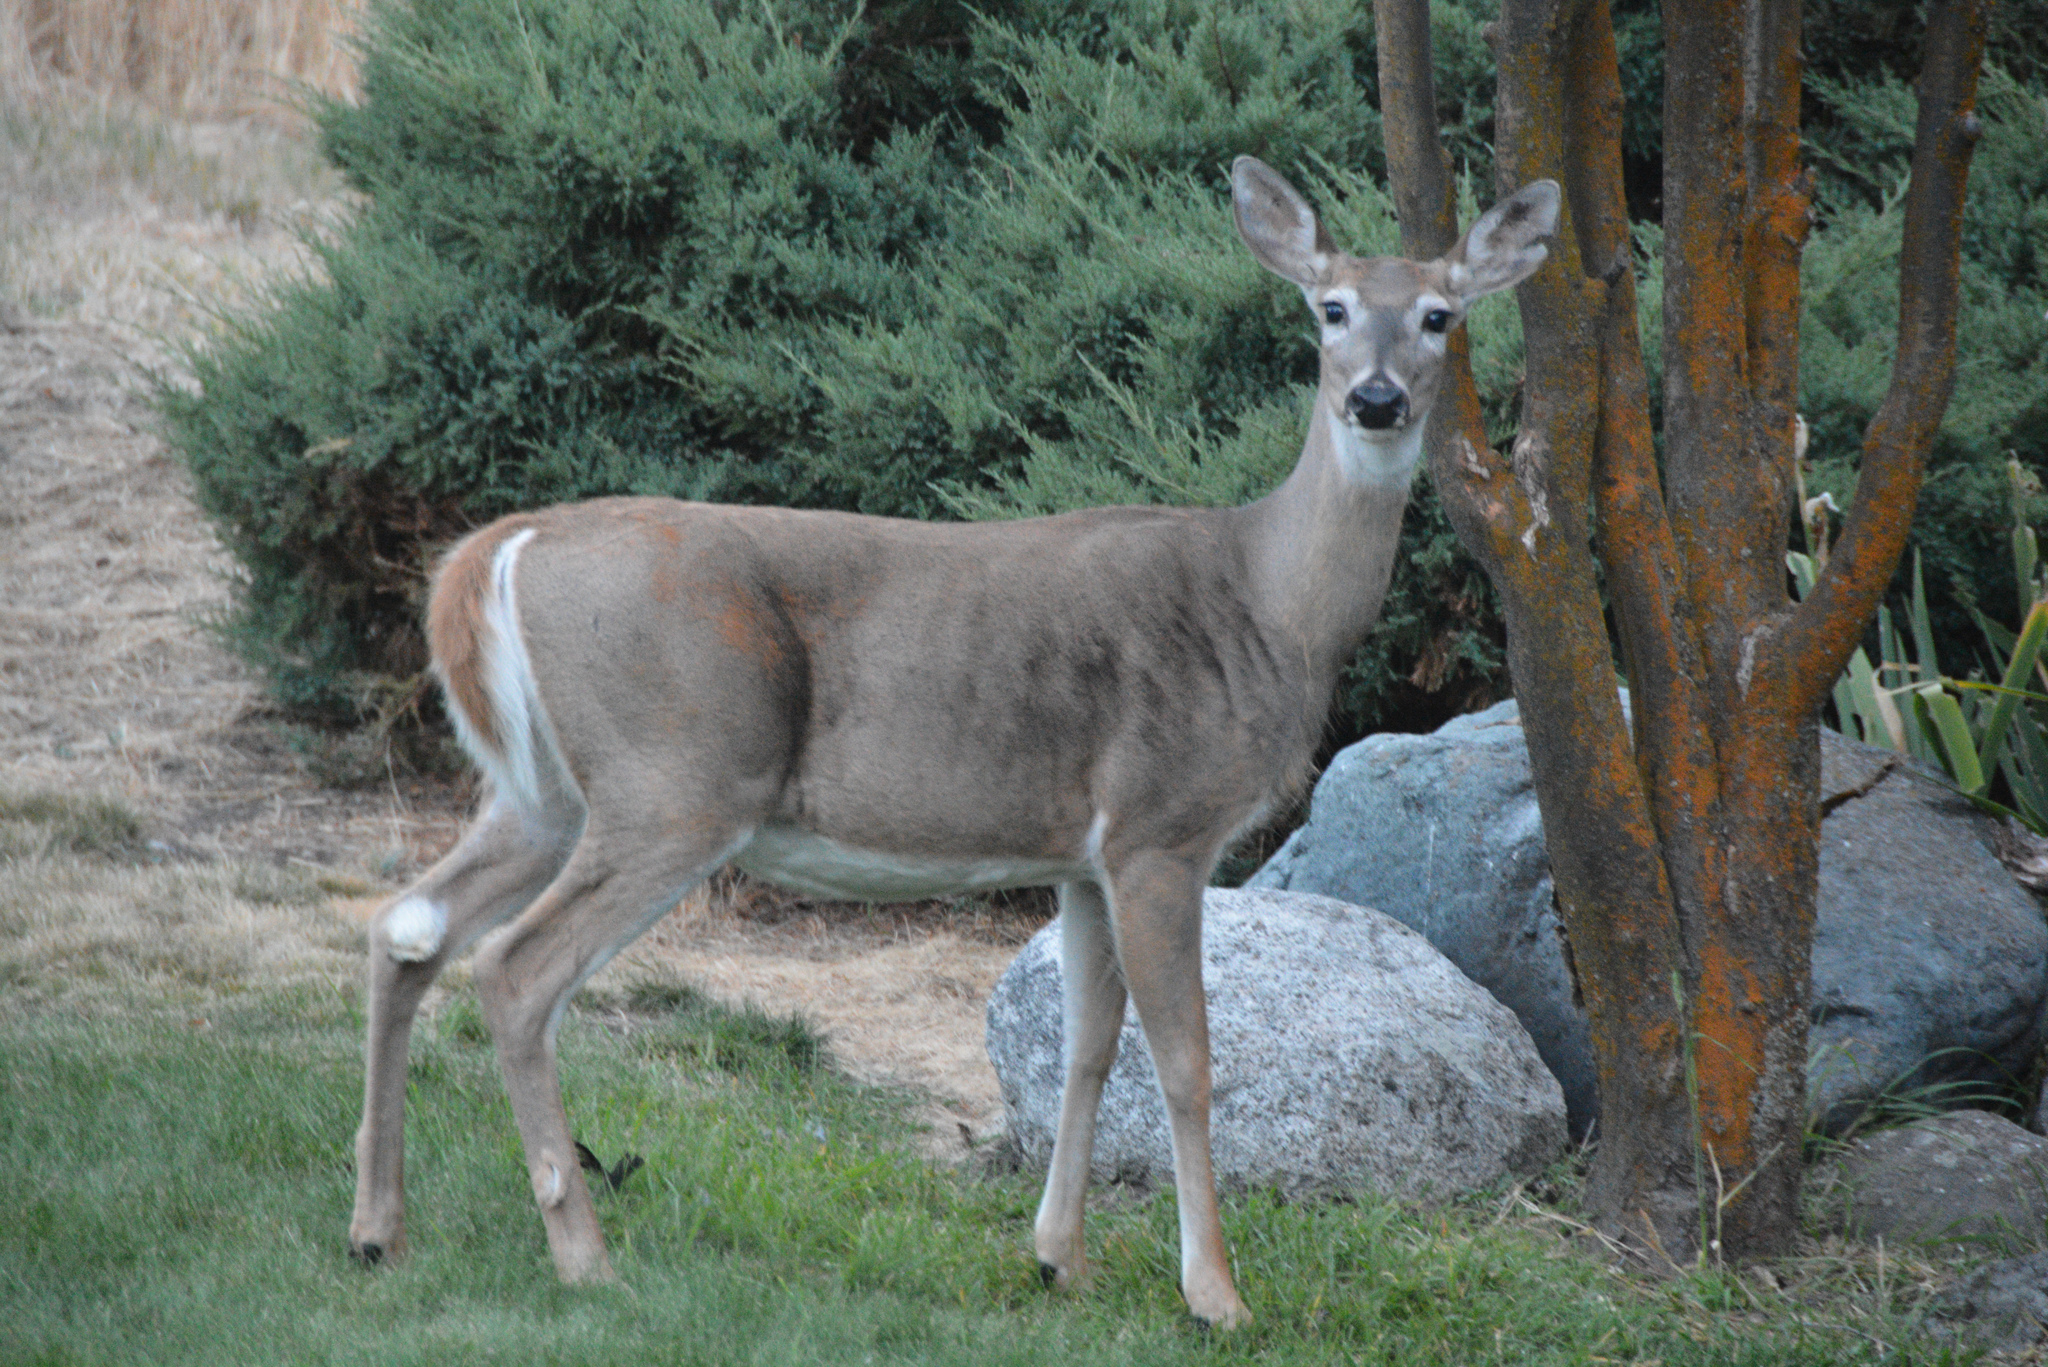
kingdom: Animalia
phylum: Chordata
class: Mammalia
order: Artiodactyla
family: Cervidae
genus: Odocoileus
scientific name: Odocoileus virginianus
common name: White-tailed deer
